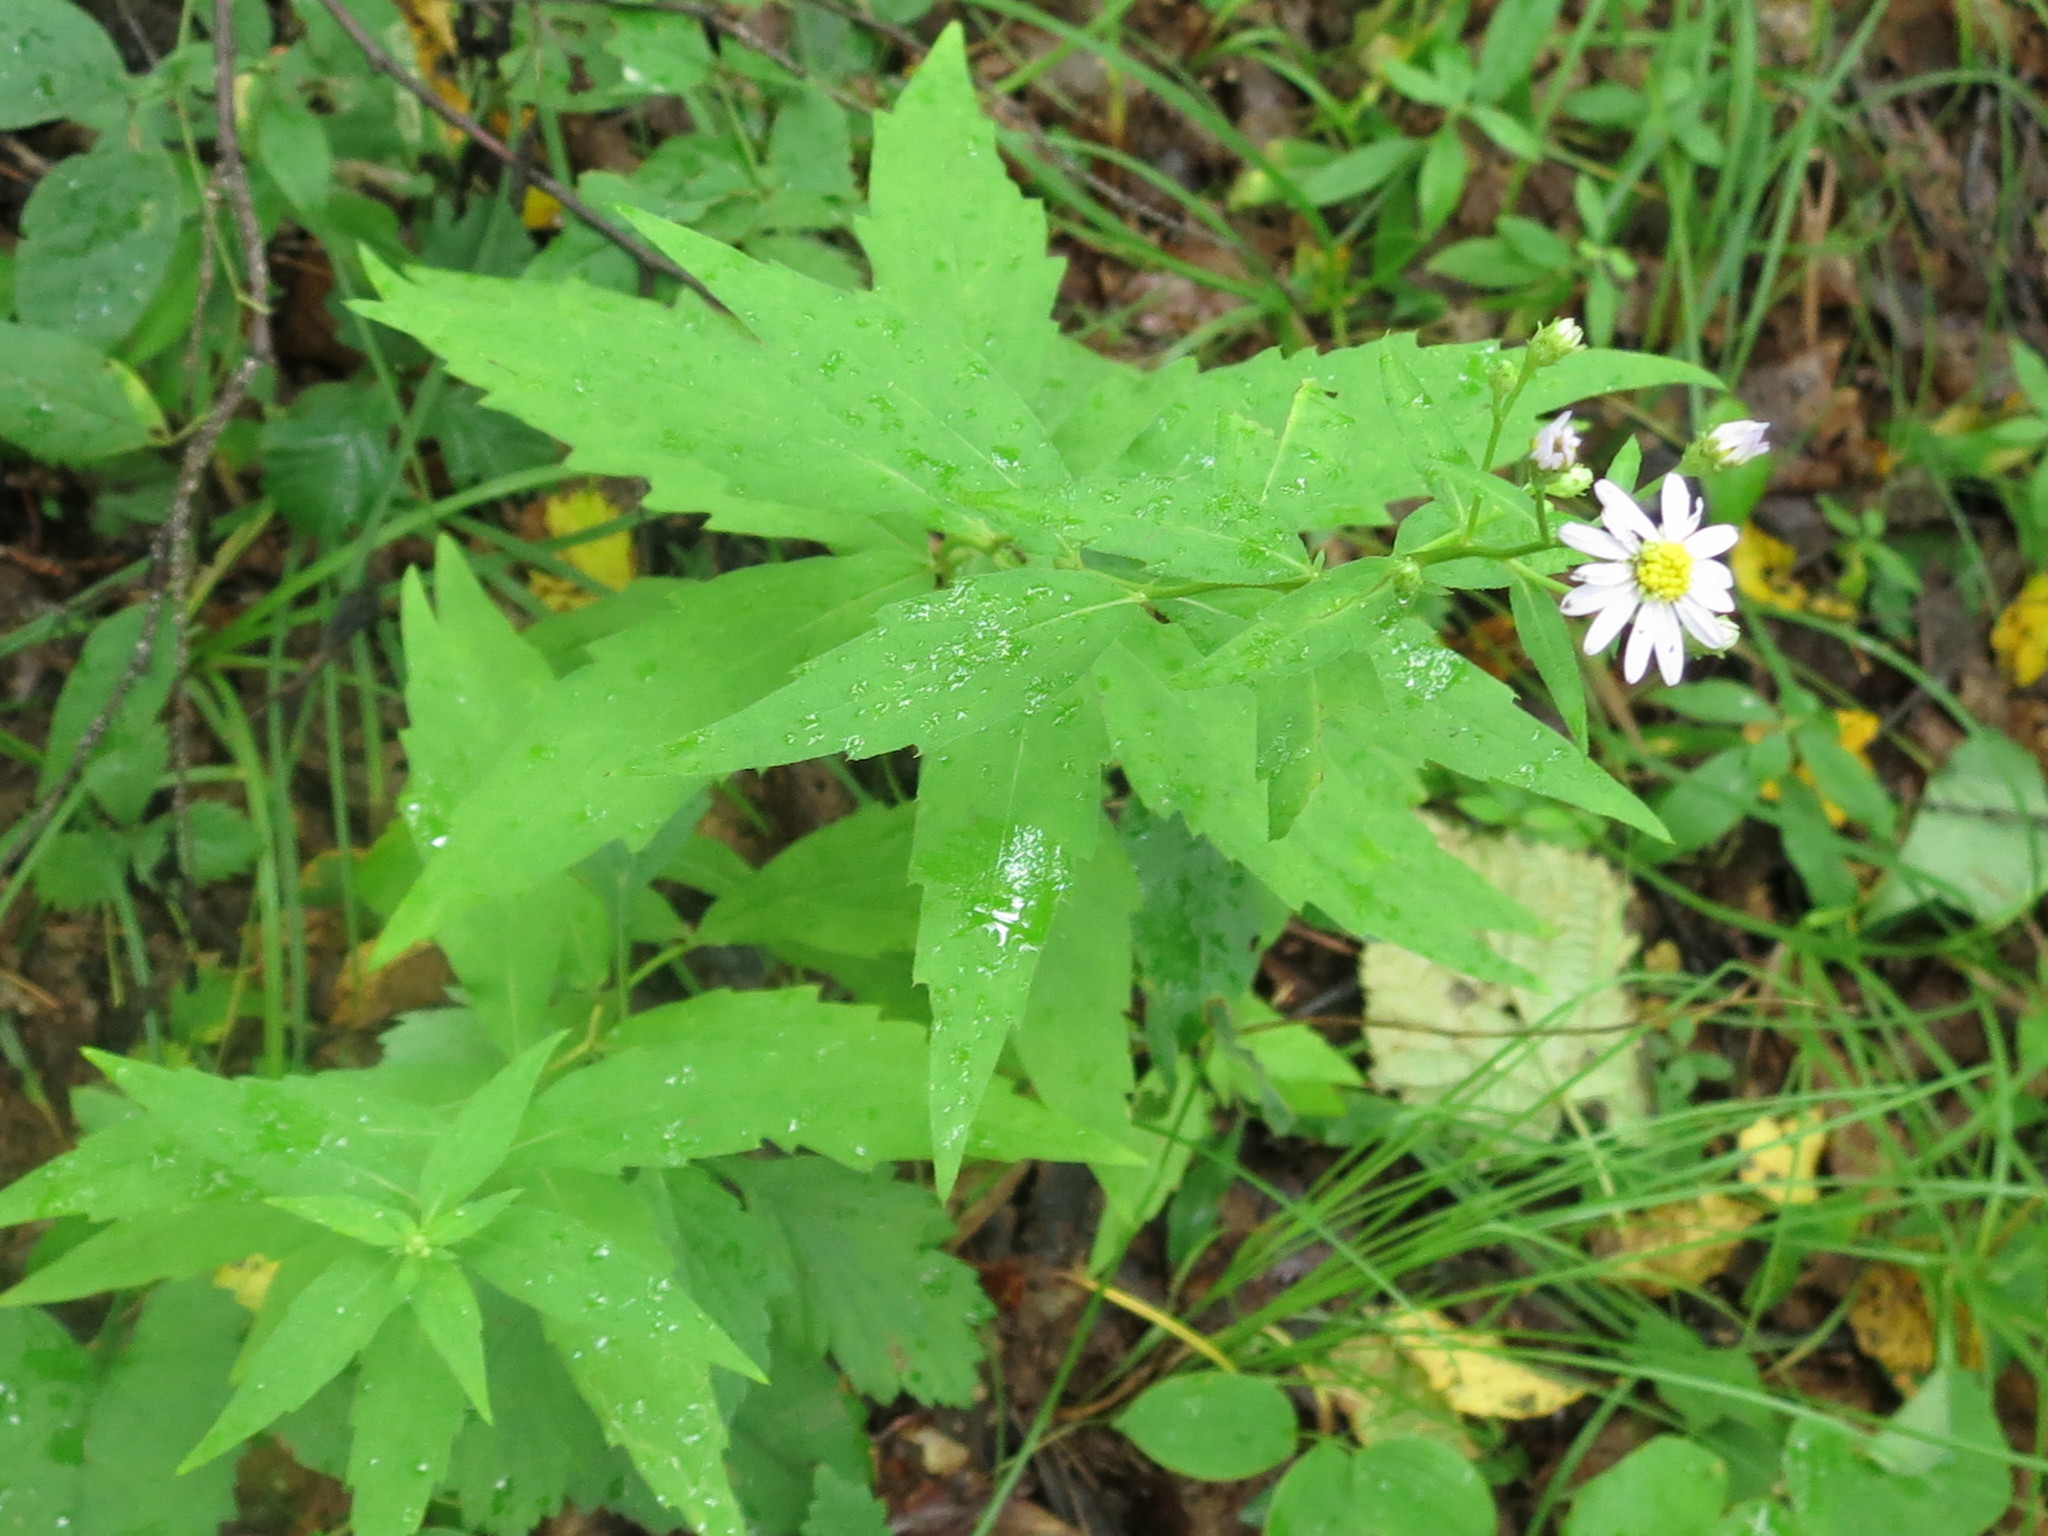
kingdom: Plantae
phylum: Tracheophyta
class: Magnoliopsida
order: Asterales
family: Asteraceae
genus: Aster
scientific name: Aster ageratoides
